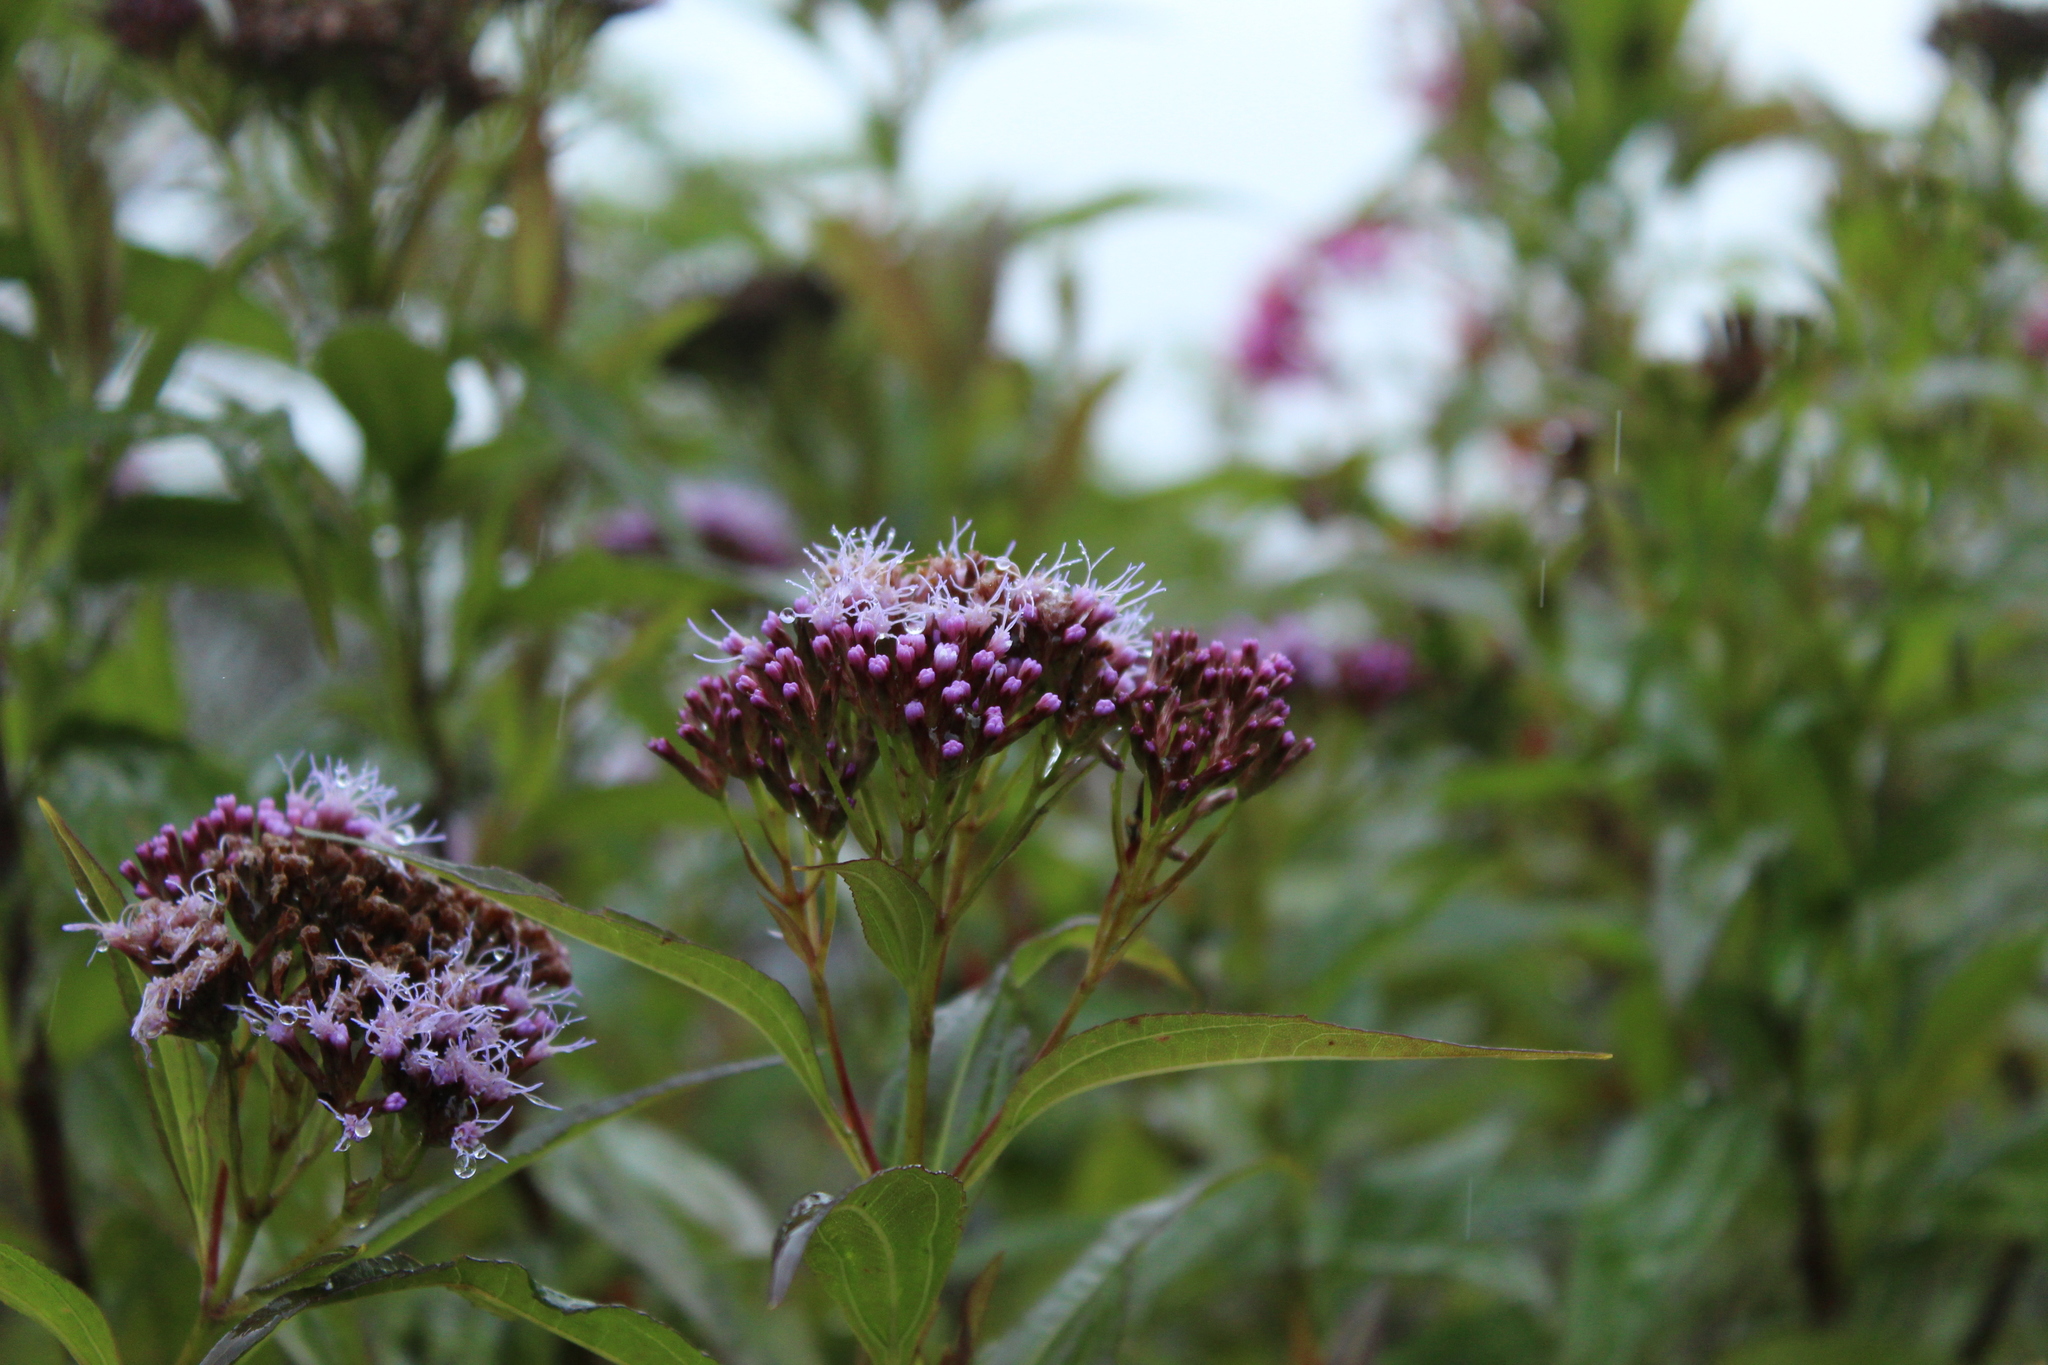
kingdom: Plantae
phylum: Tracheophyta
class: Magnoliopsida
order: Asterales
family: Asteraceae
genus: Chromolaena
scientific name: Chromolaena perglabra
